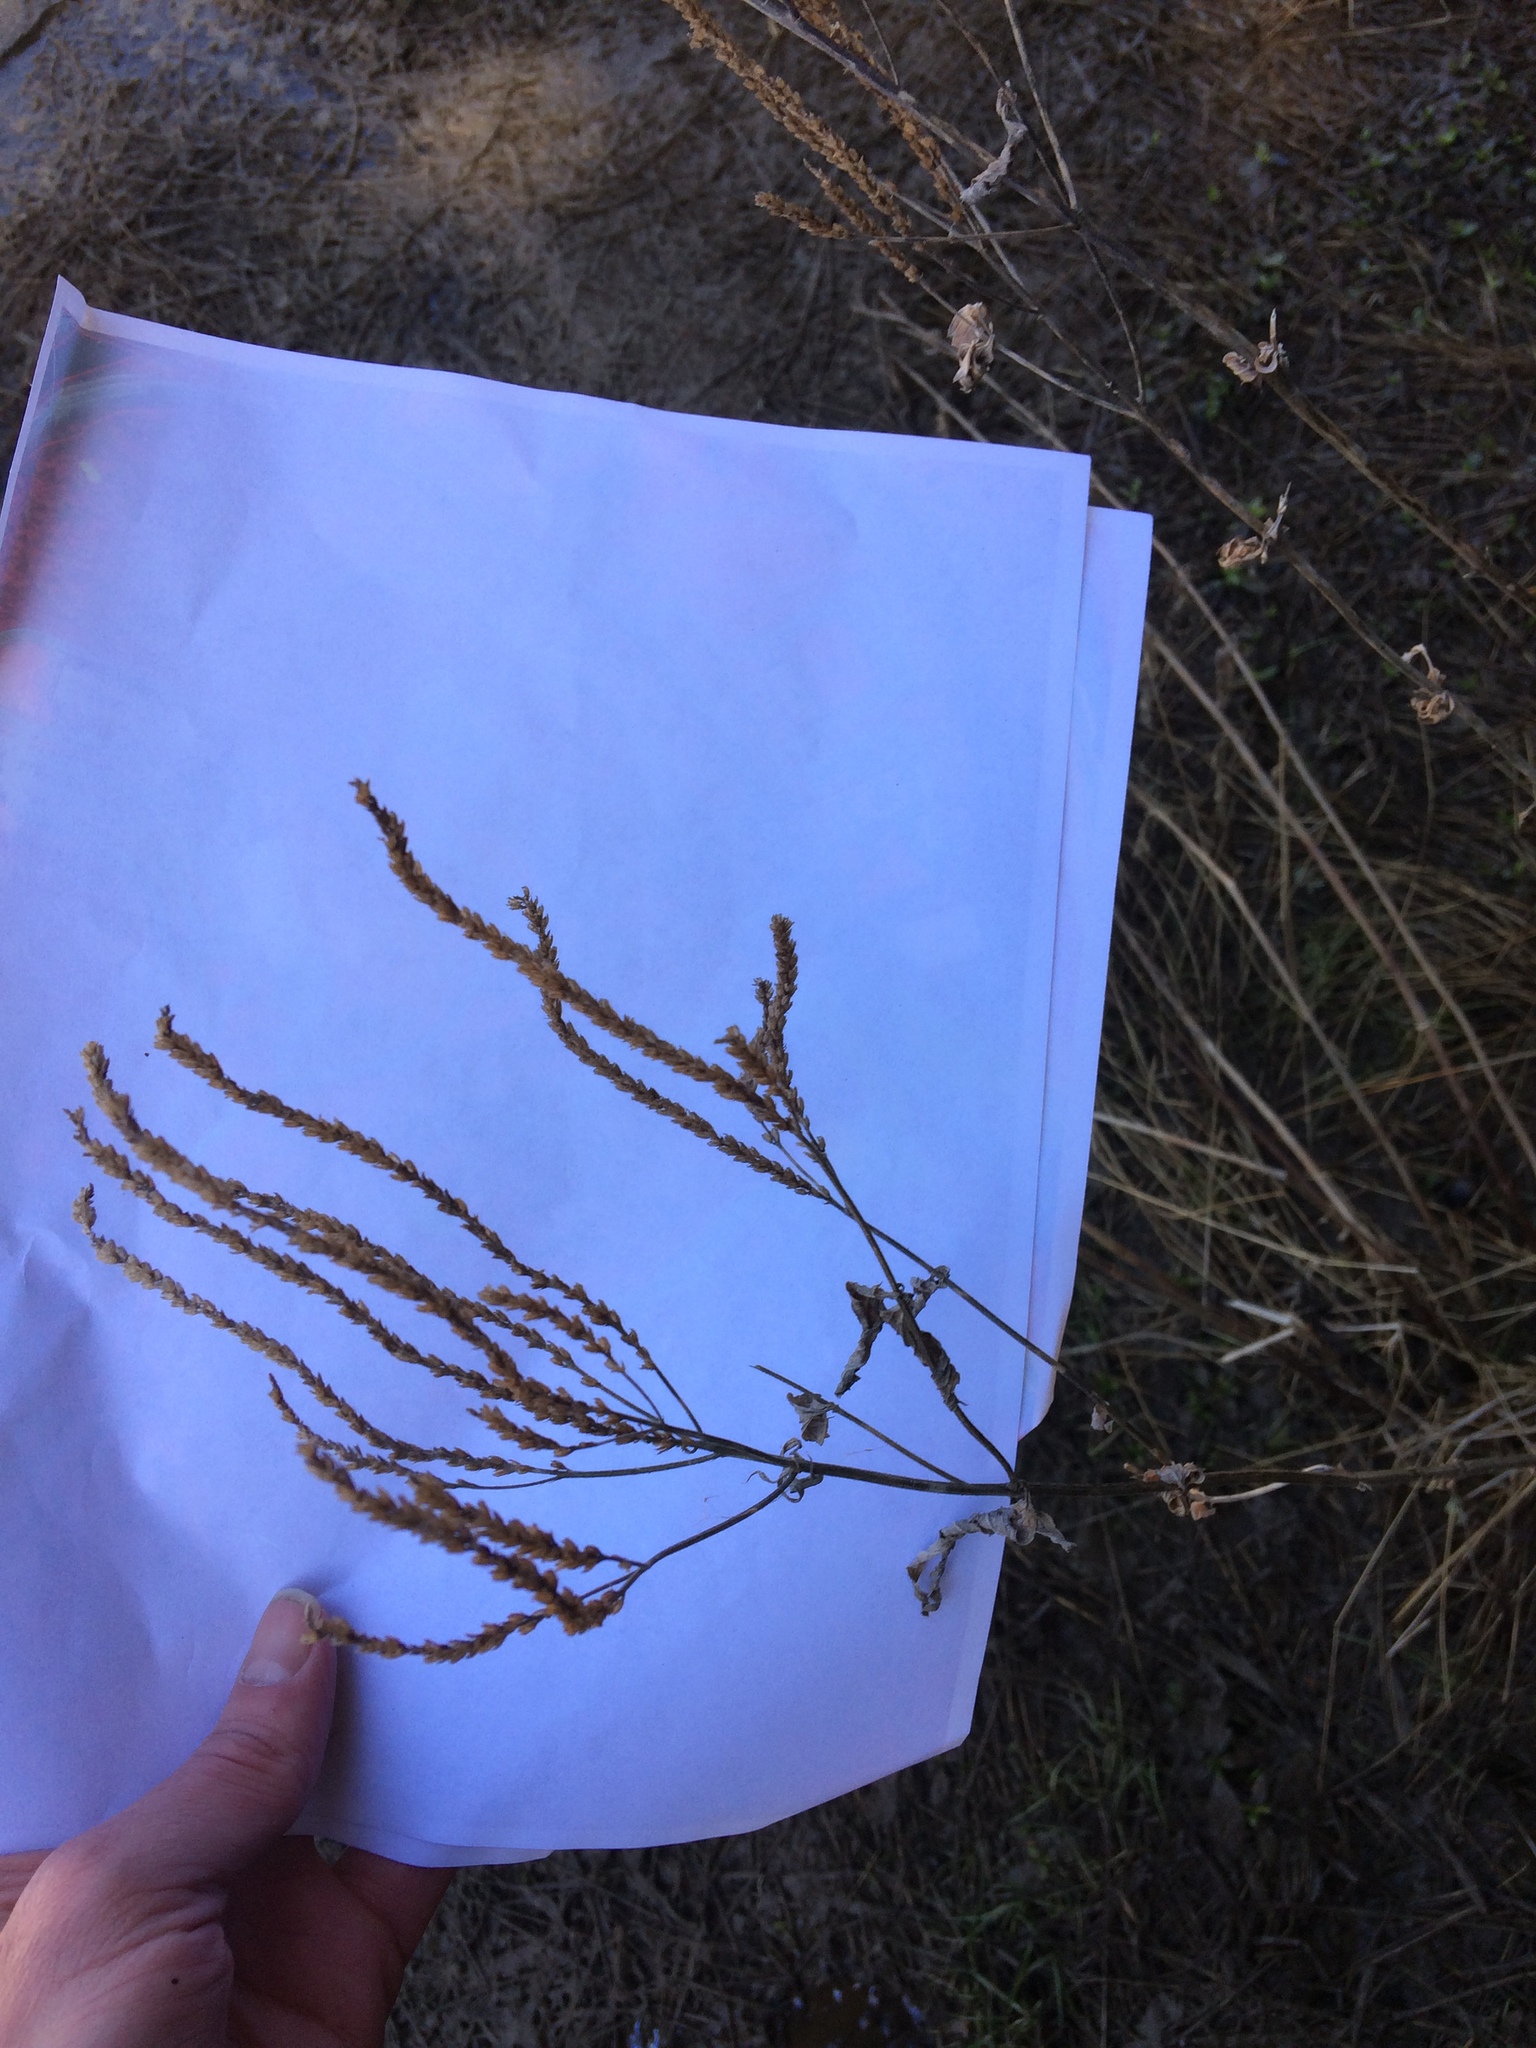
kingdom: Plantae
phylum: Tracheophyta
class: Magnoliopsida
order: Lamiales
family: Verbenaceae
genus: Verbena
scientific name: Verbena hastata
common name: American blue vervain
